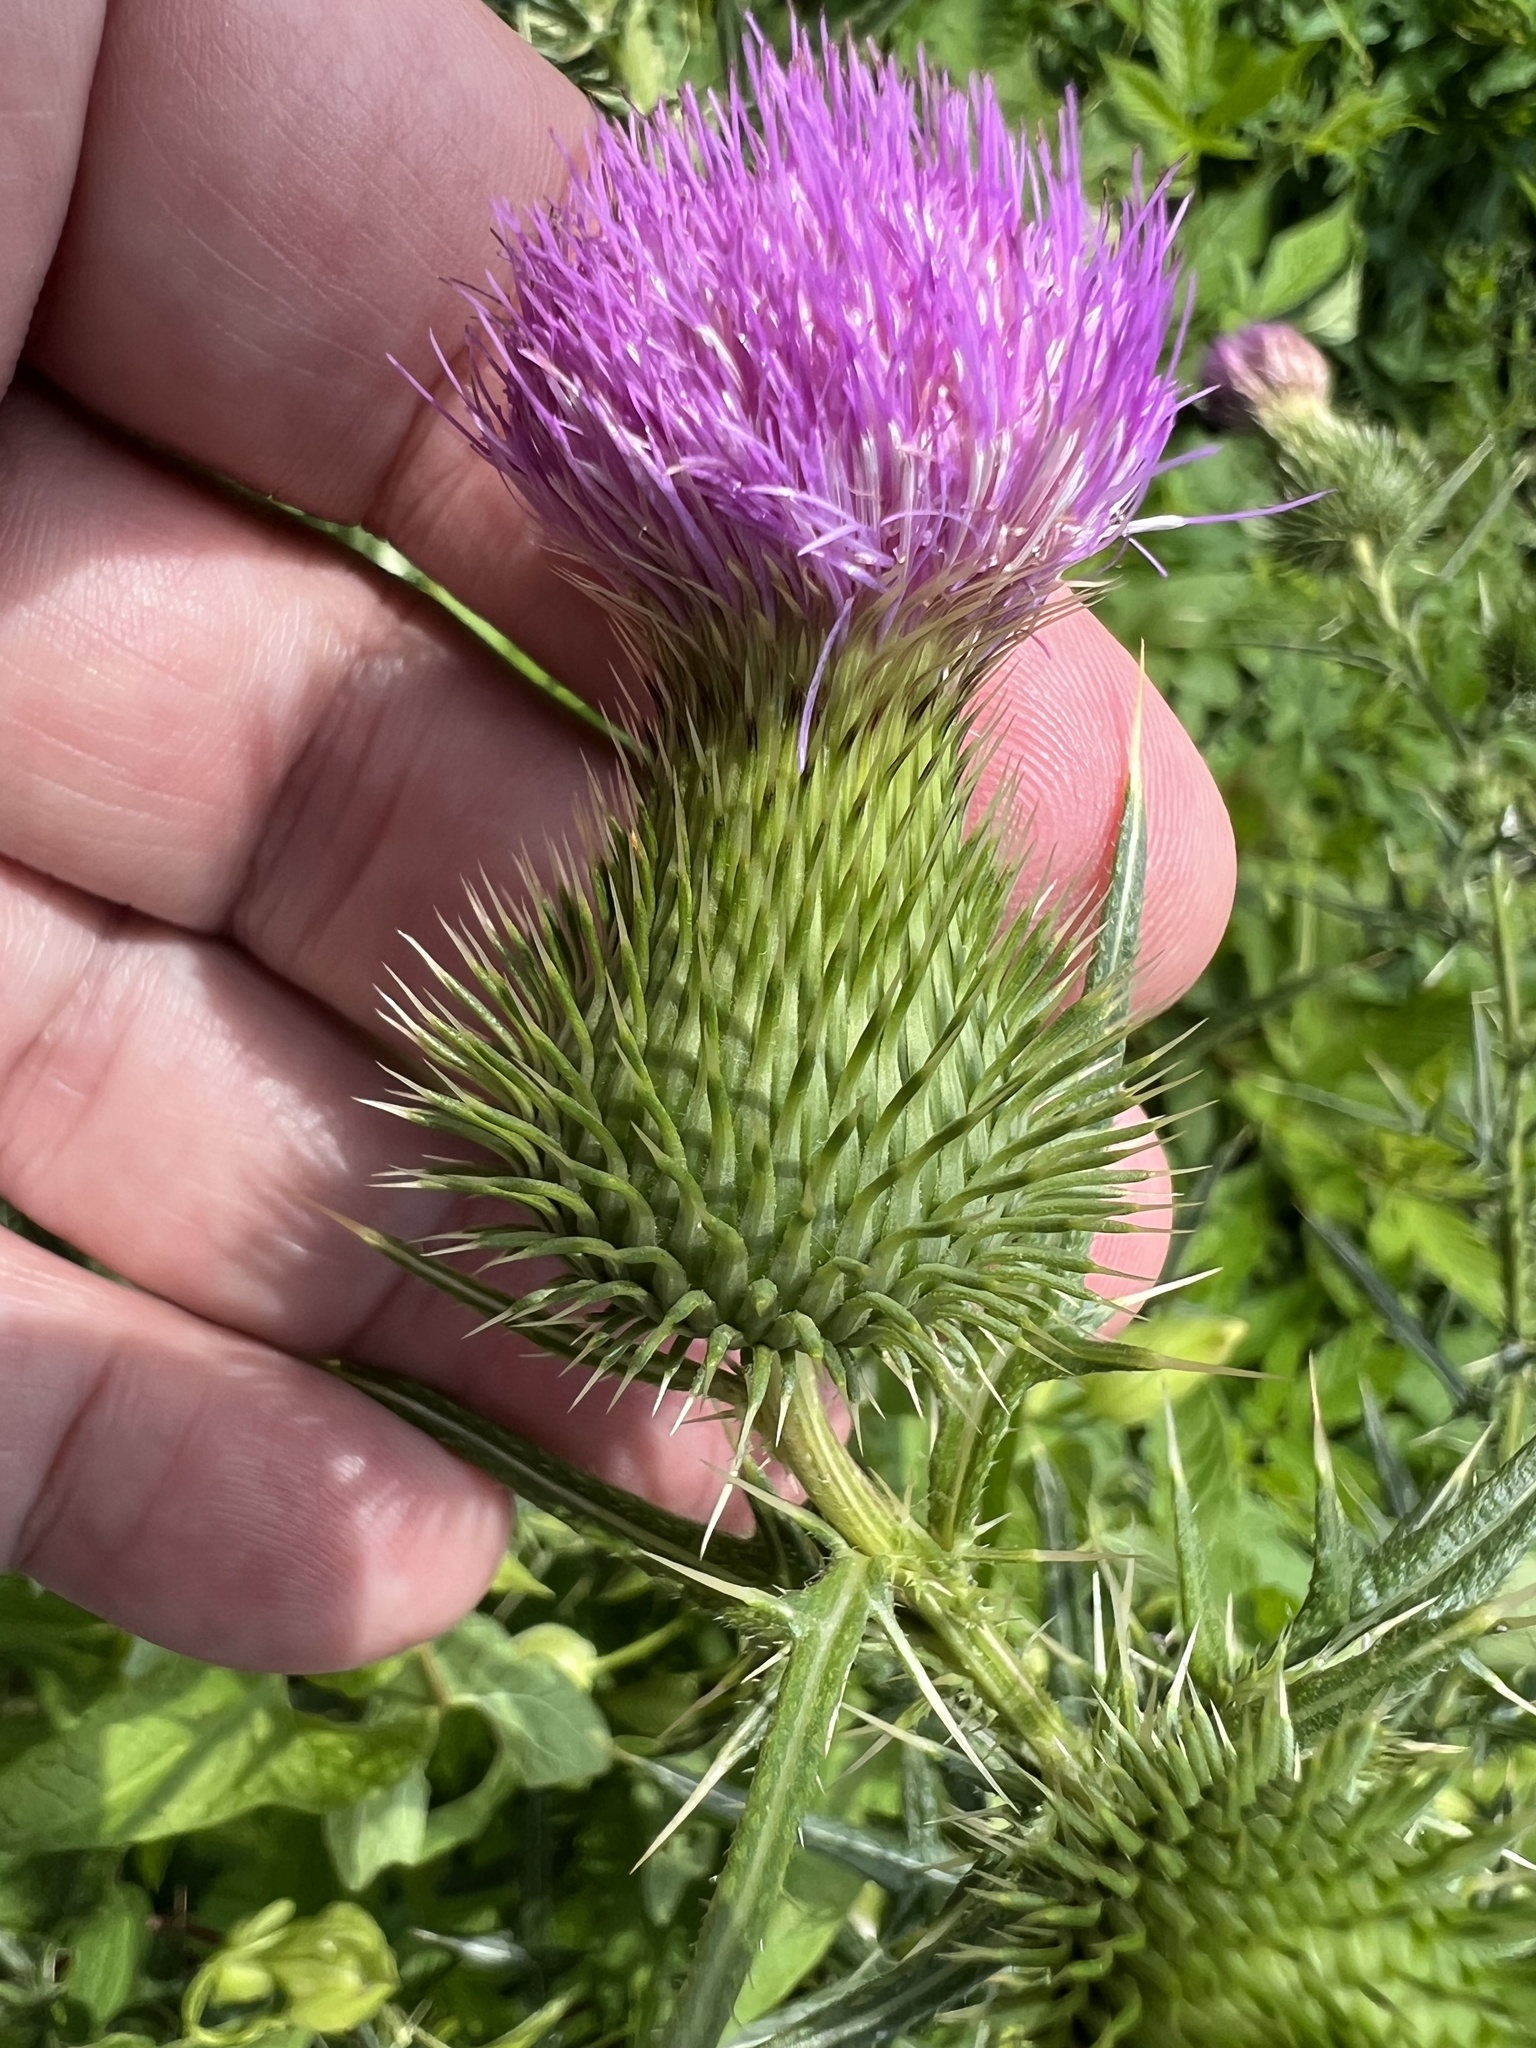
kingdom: Plantae
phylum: Tracheophyta
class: Magnoliopsida
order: Asterales
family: Asteraceae
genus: Cirsium
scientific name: Cirsium vulgare
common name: Bull thistle
